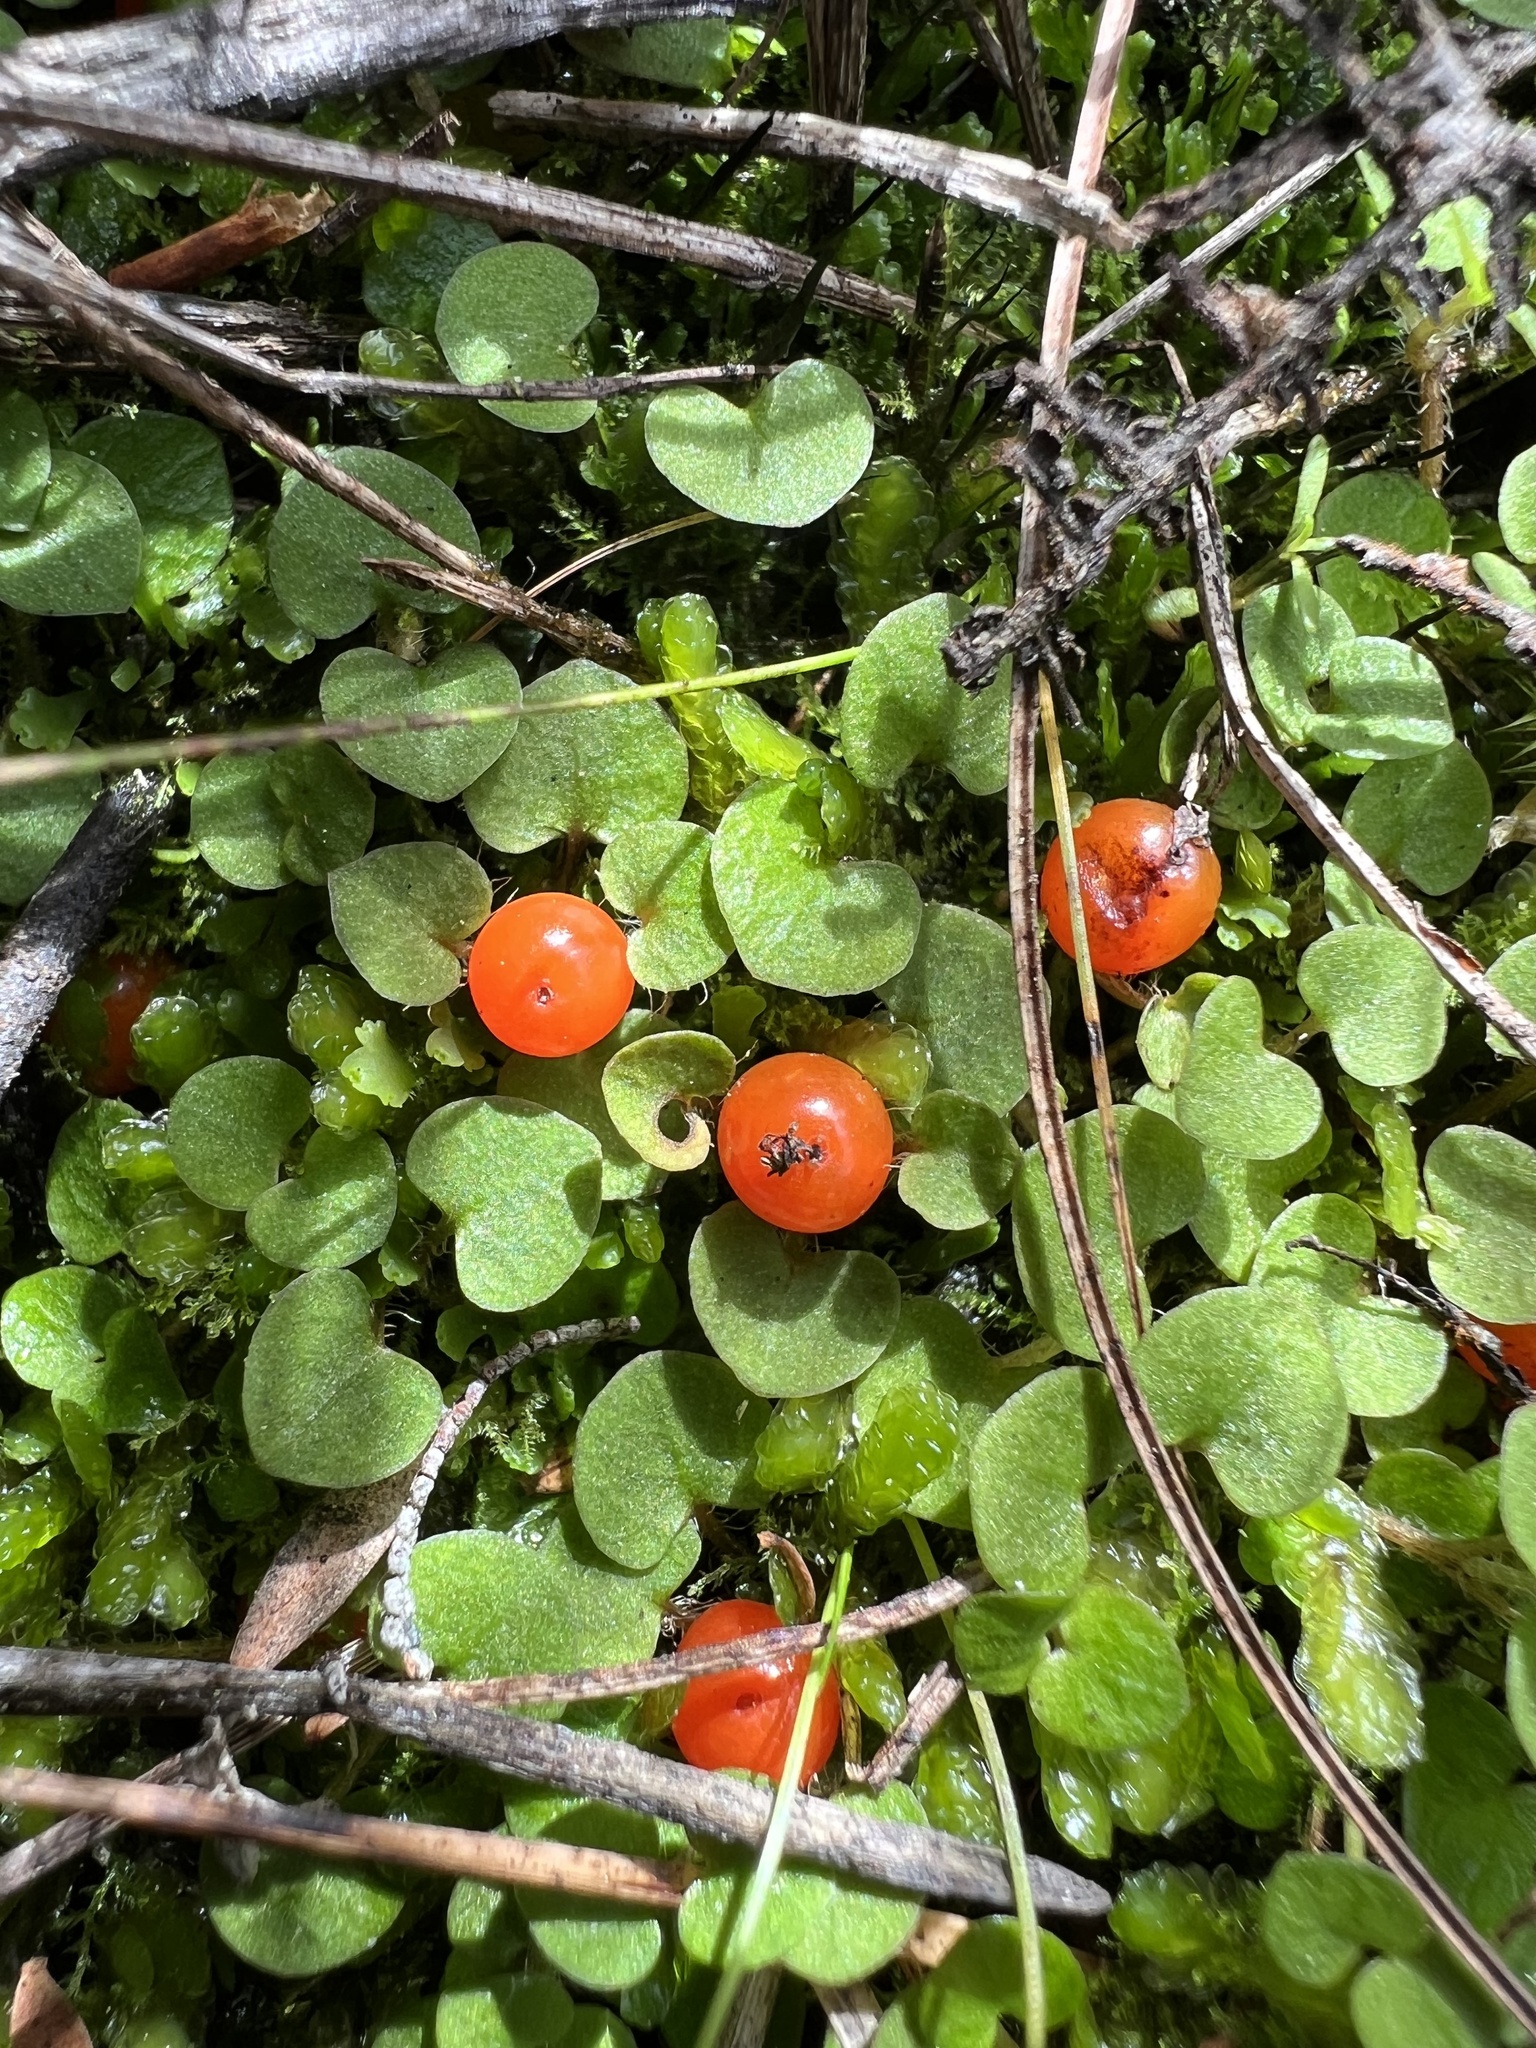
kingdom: Plantae
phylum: Tracheophyta
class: Magnoliopsida
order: Gentianales
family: Rubiaceae
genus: Nertera
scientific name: Nertera scapanioides
